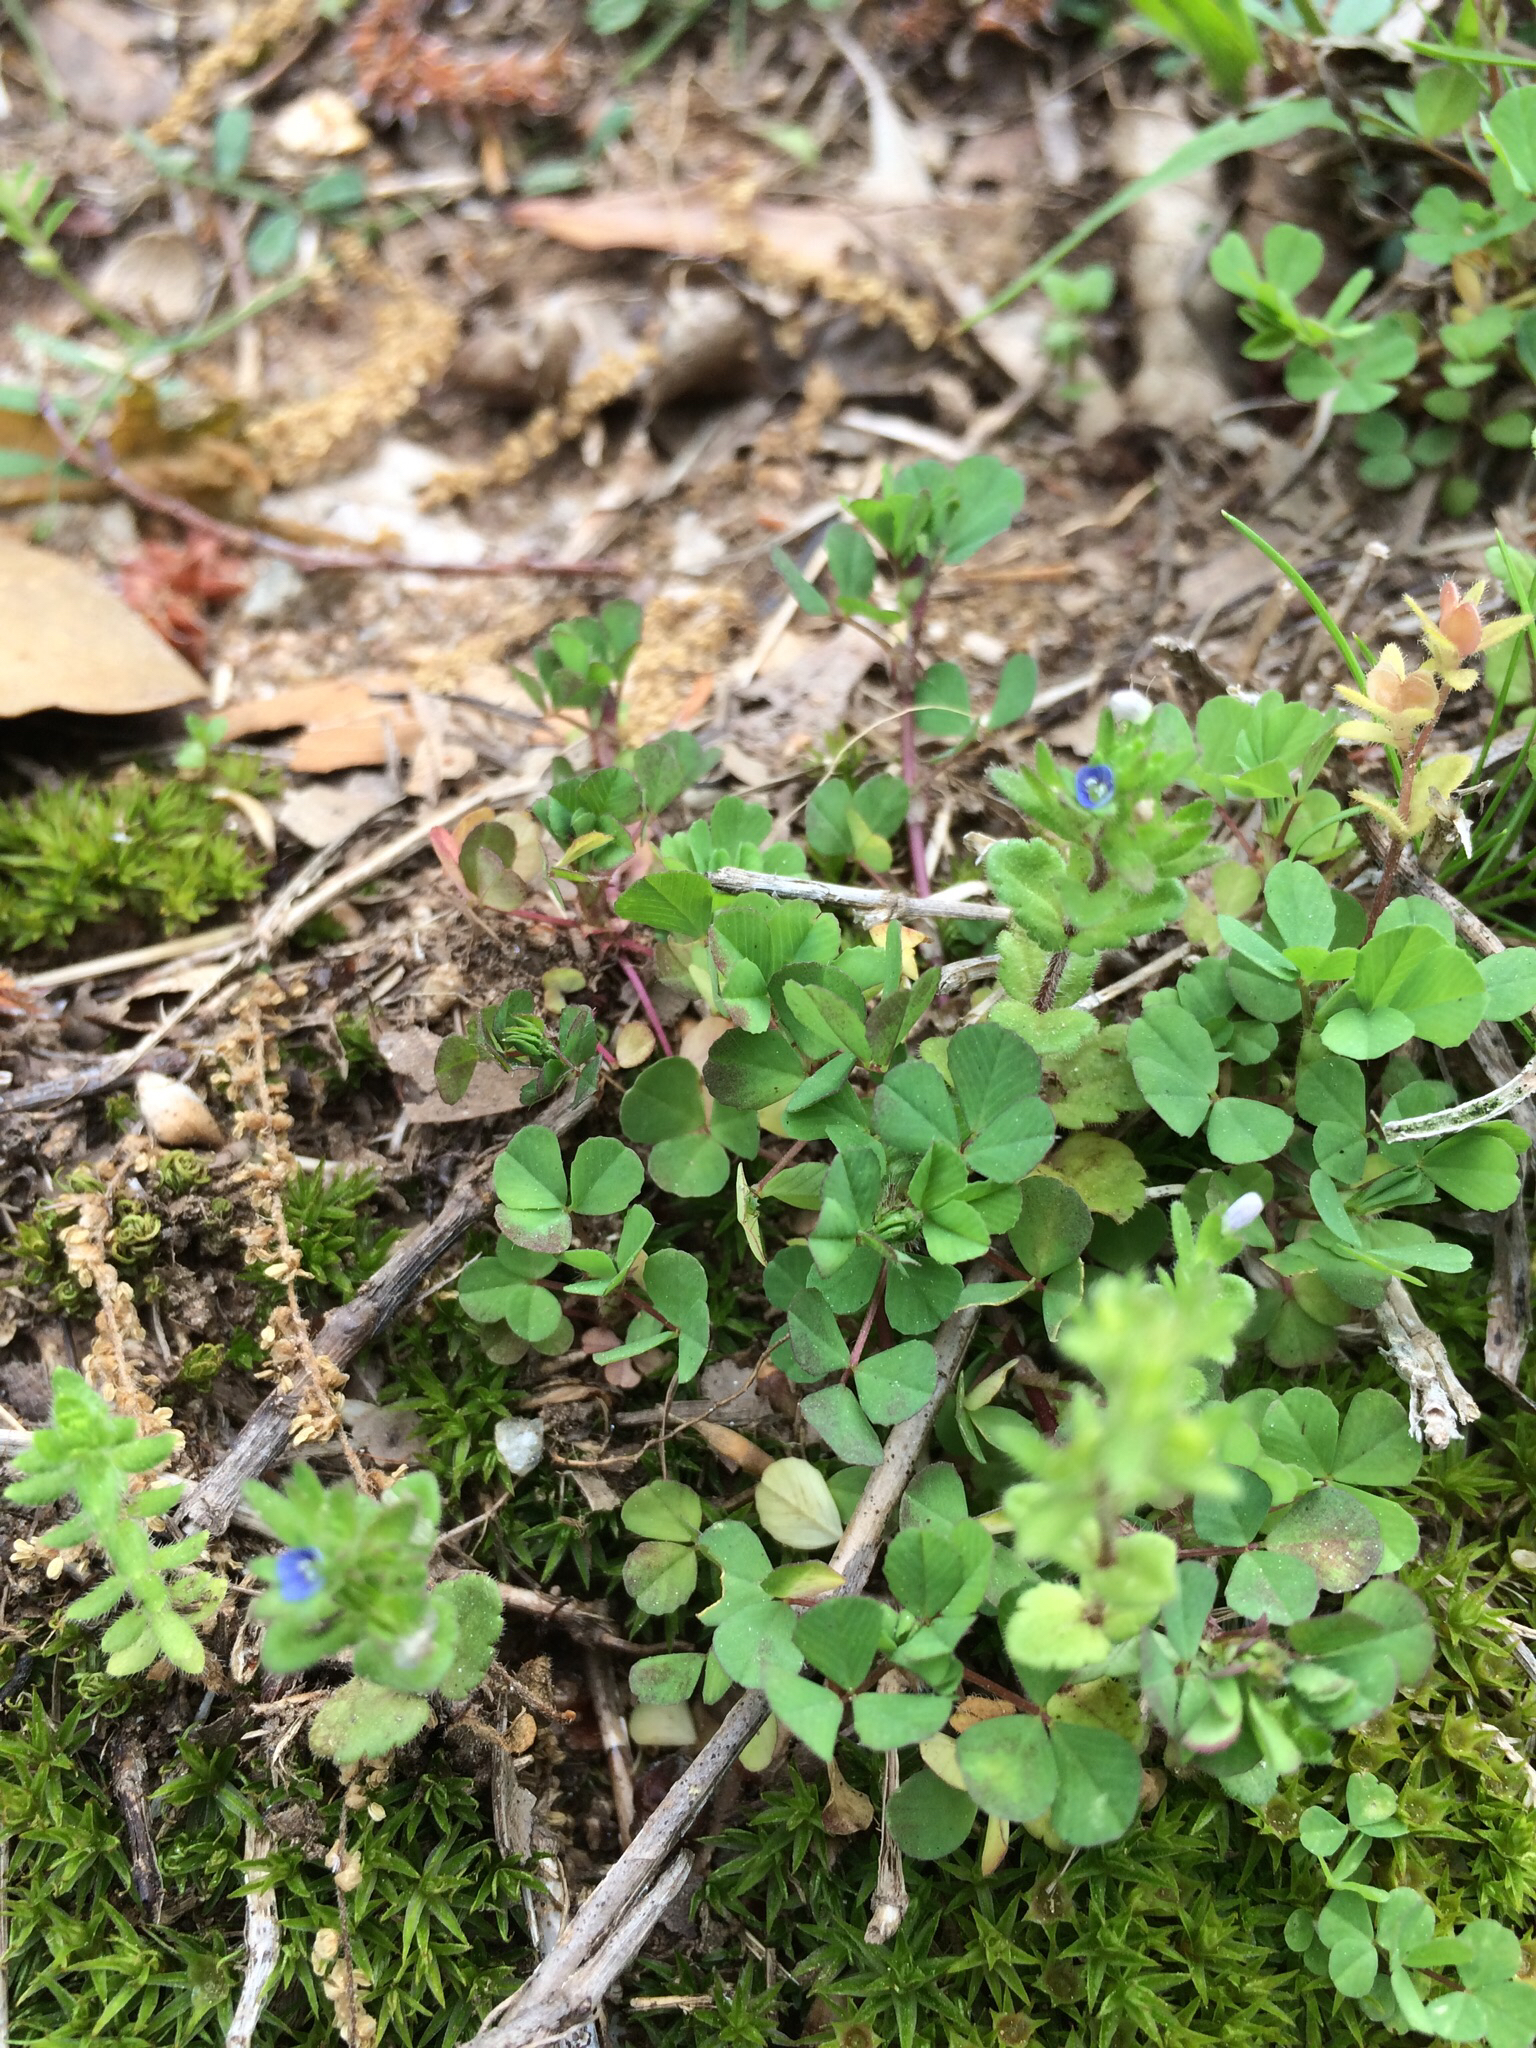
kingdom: Plantae
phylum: Tracheophyta
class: Magnoliopsida
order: Lamiales
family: Plantaginaceae
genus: Veronica
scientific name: Veronica arvensis
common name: Corn speedwell
